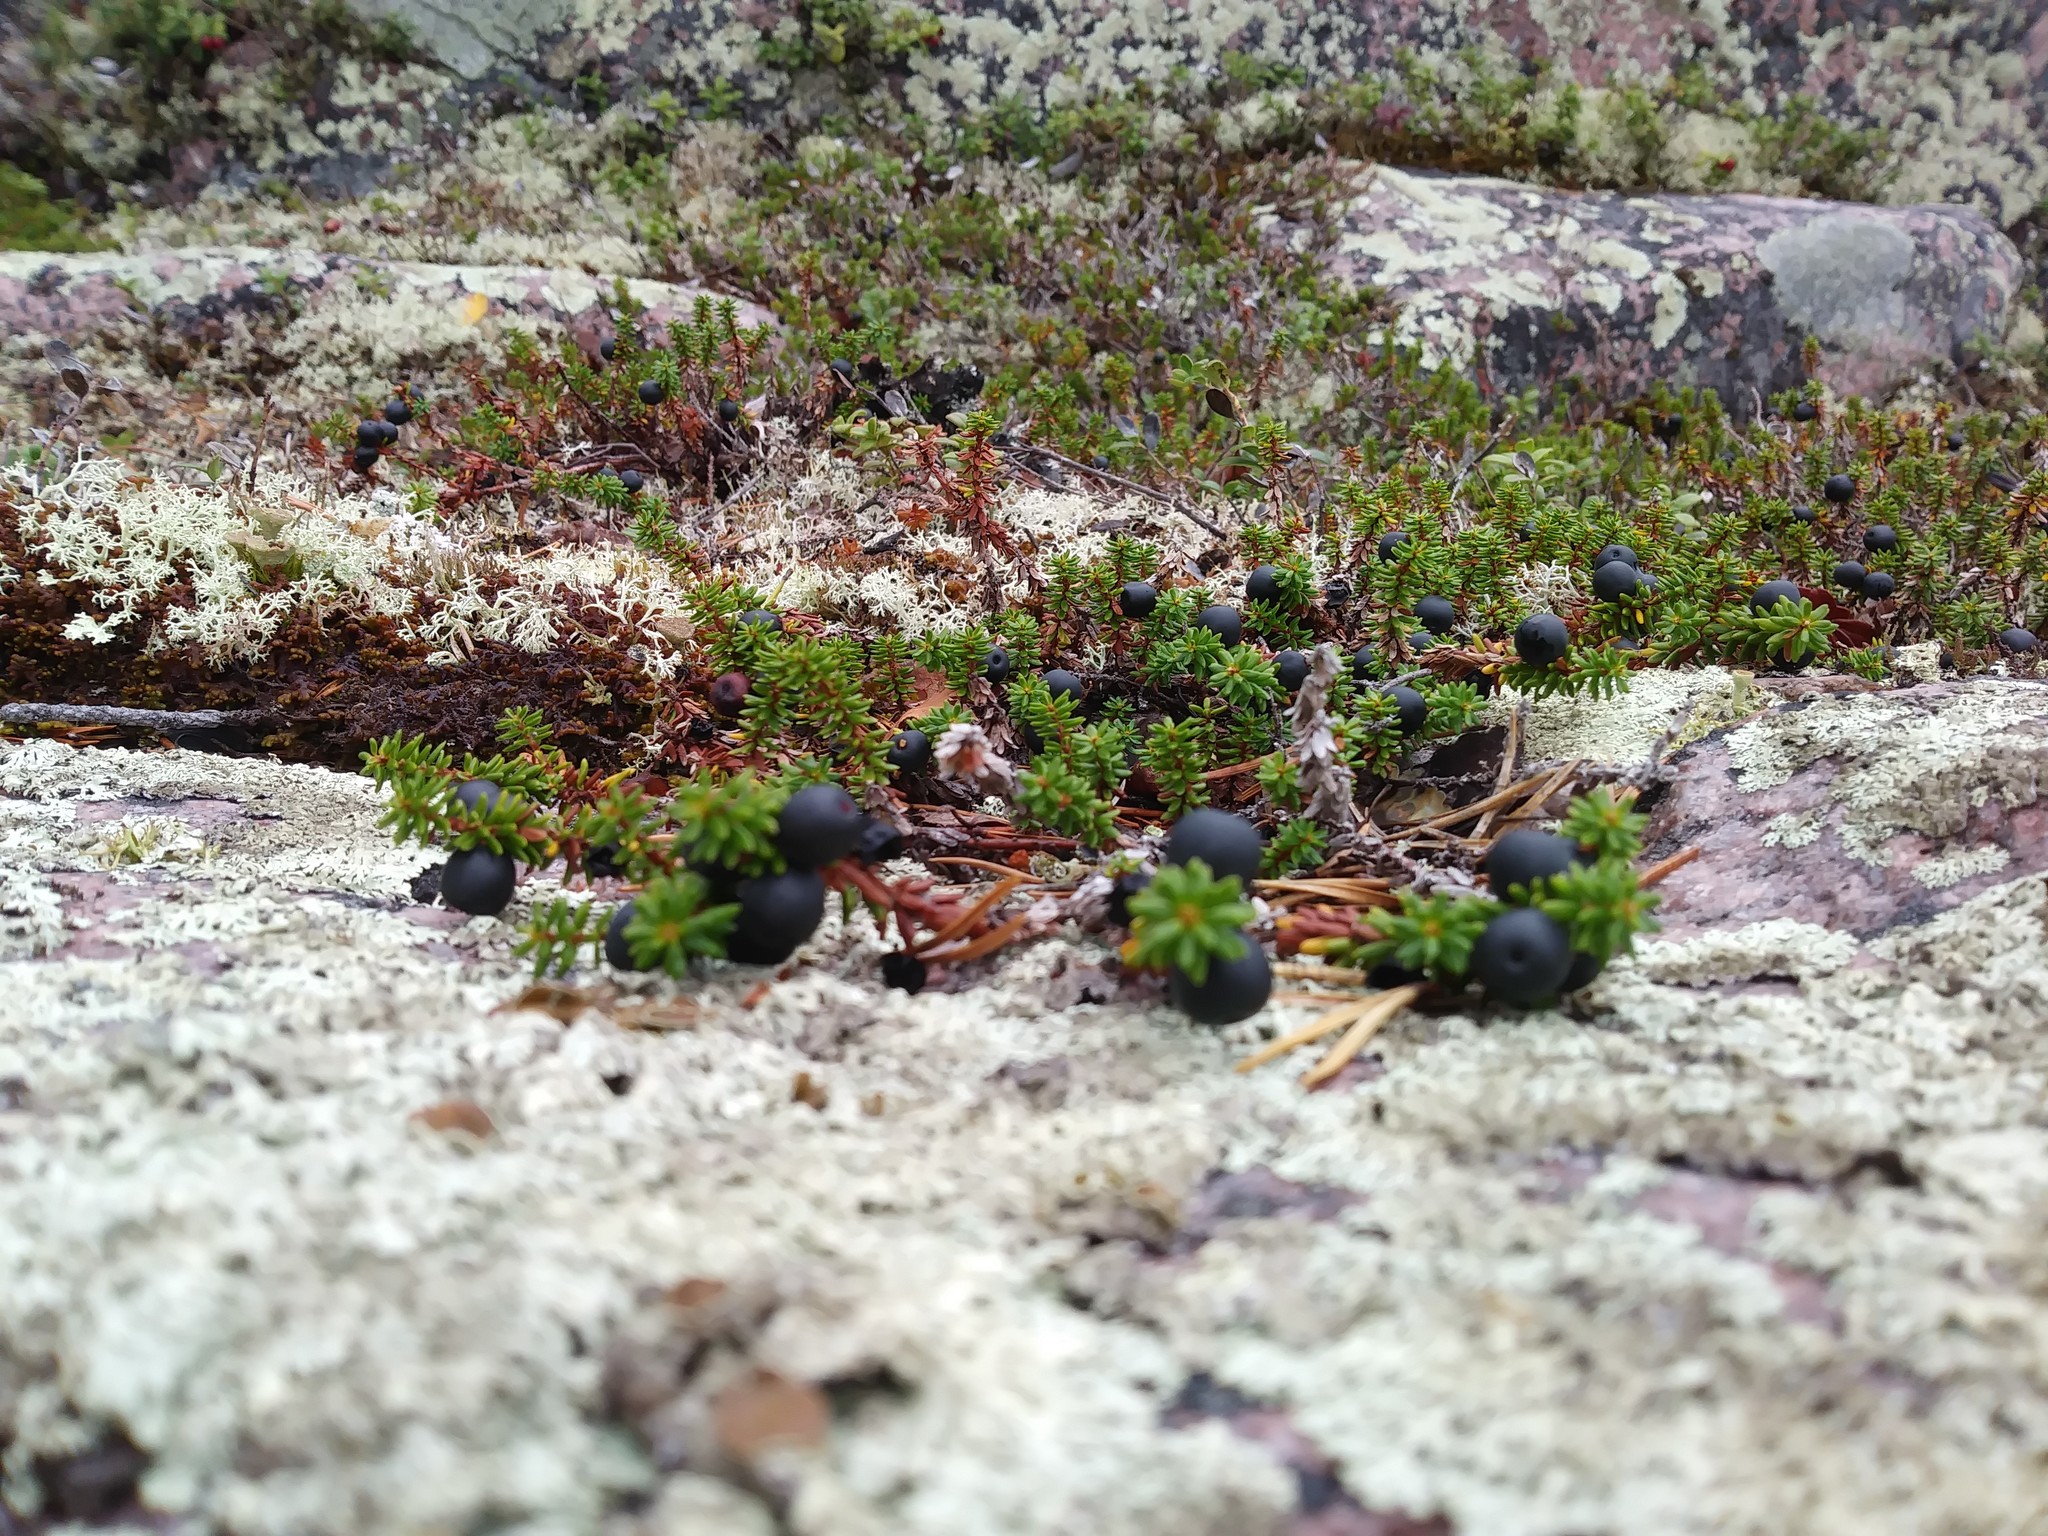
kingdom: Plantae
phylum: Tracheophyta
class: Magnoliopsida
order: Ericales
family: Ericaceae
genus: Empetrum
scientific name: Empetrum nigrum
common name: Black crowberry
